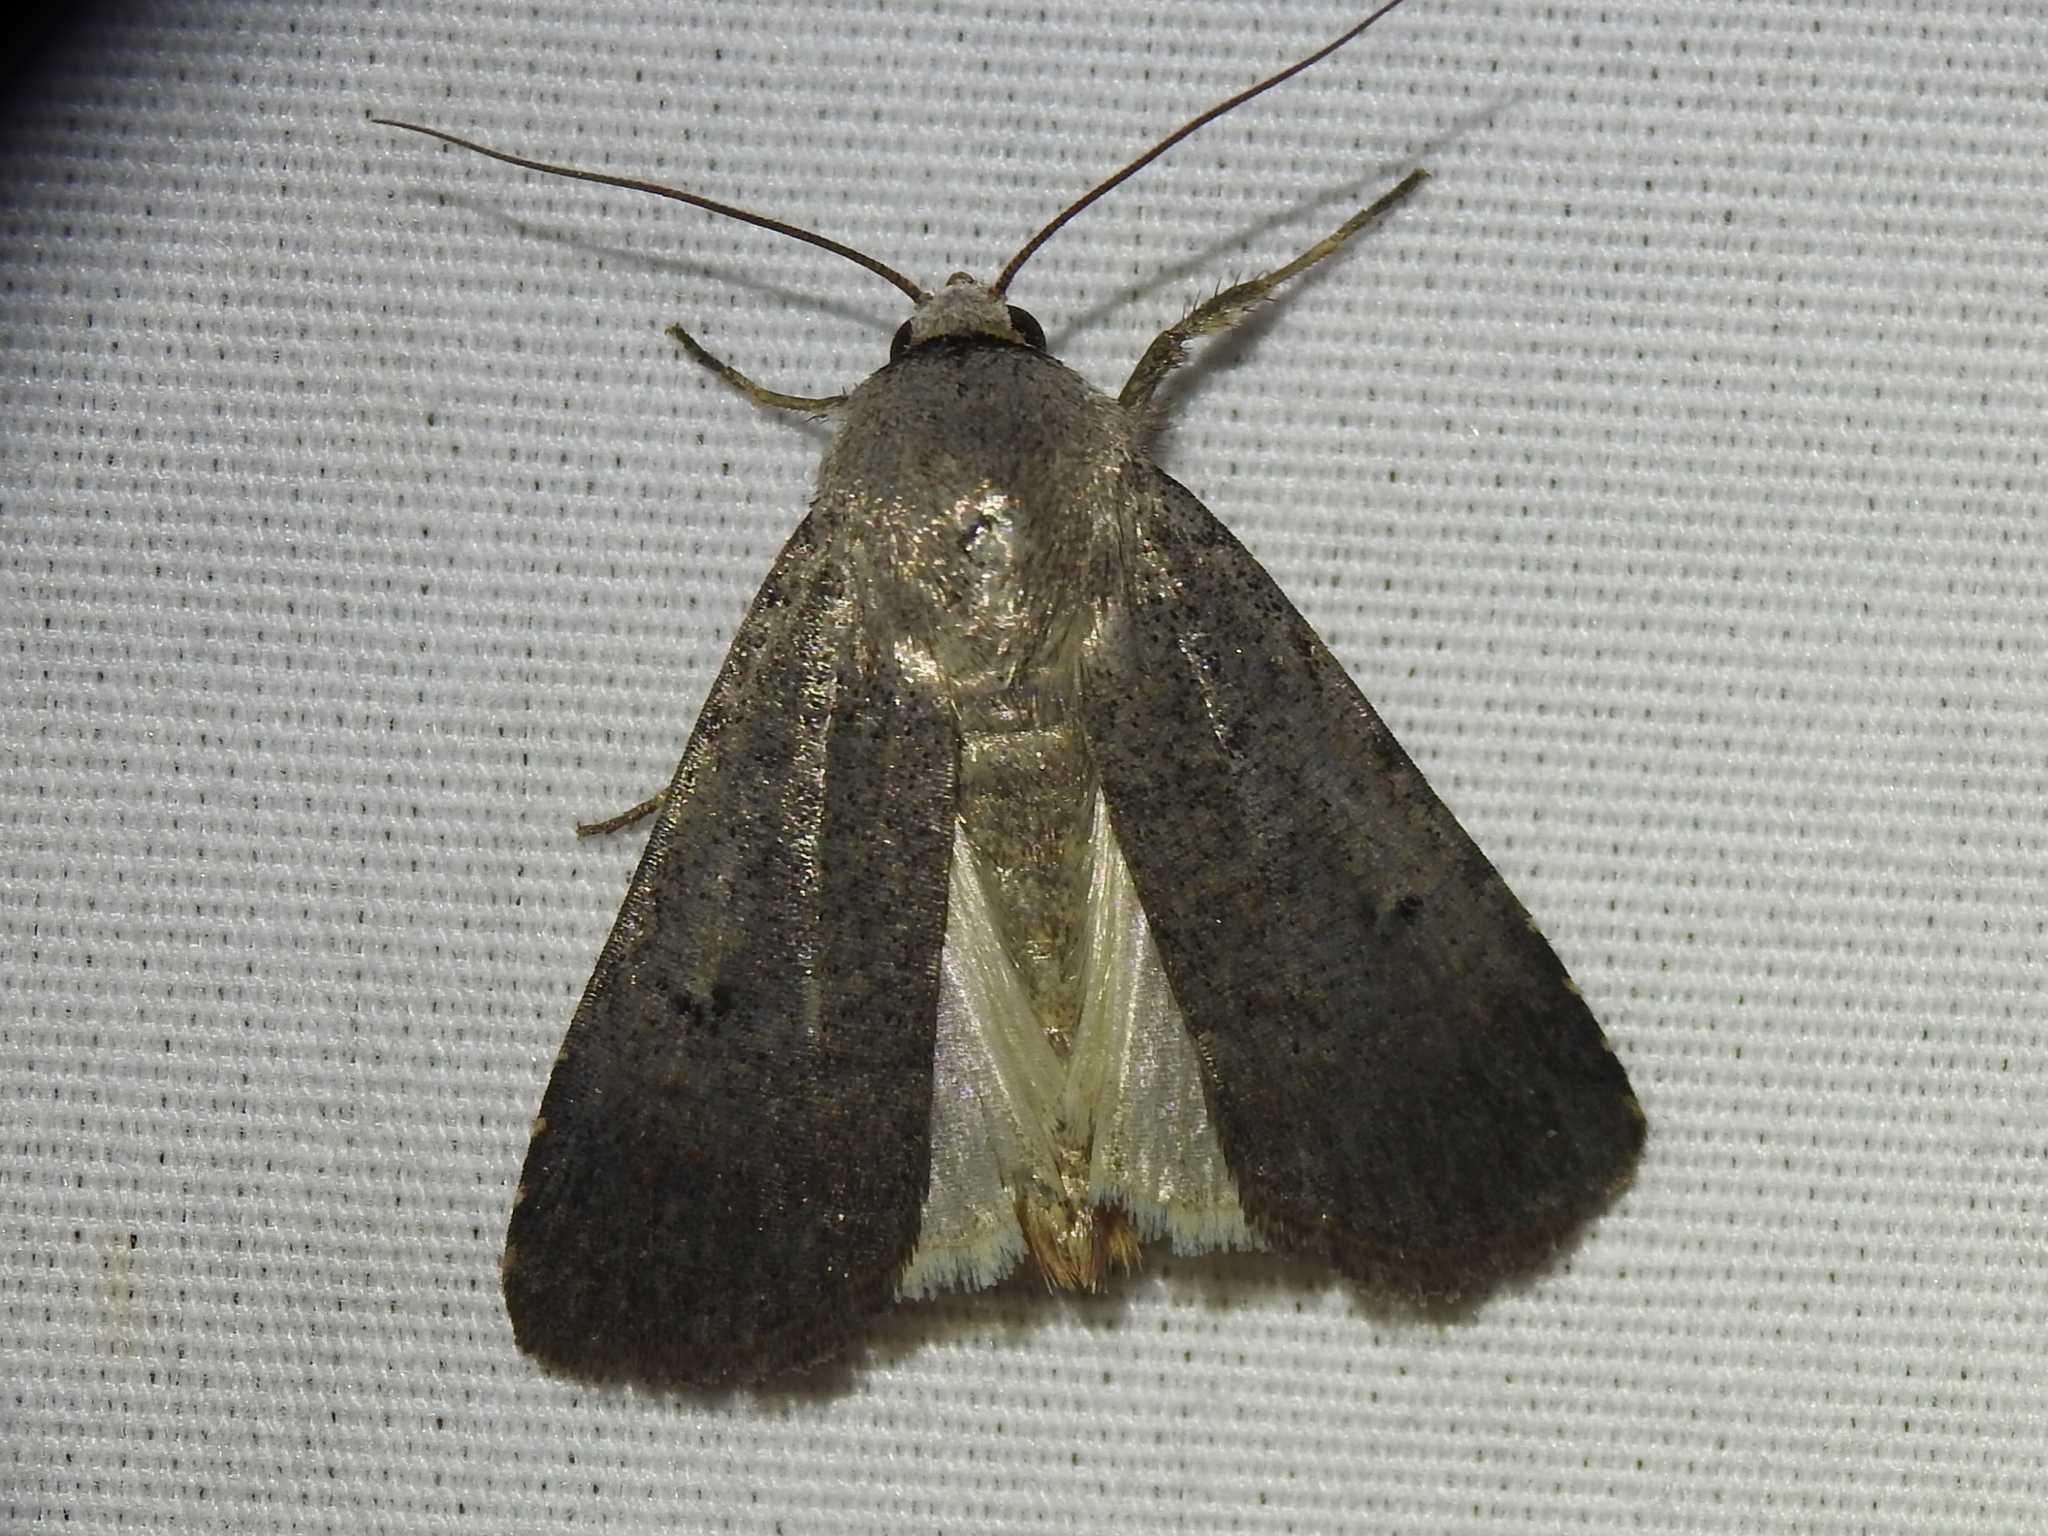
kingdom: Animalia
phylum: Arthropoda
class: Insecta
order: Lepidoptera
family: Noctuidae
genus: Anicla
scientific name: Anicla infecta
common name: Green cutworm
